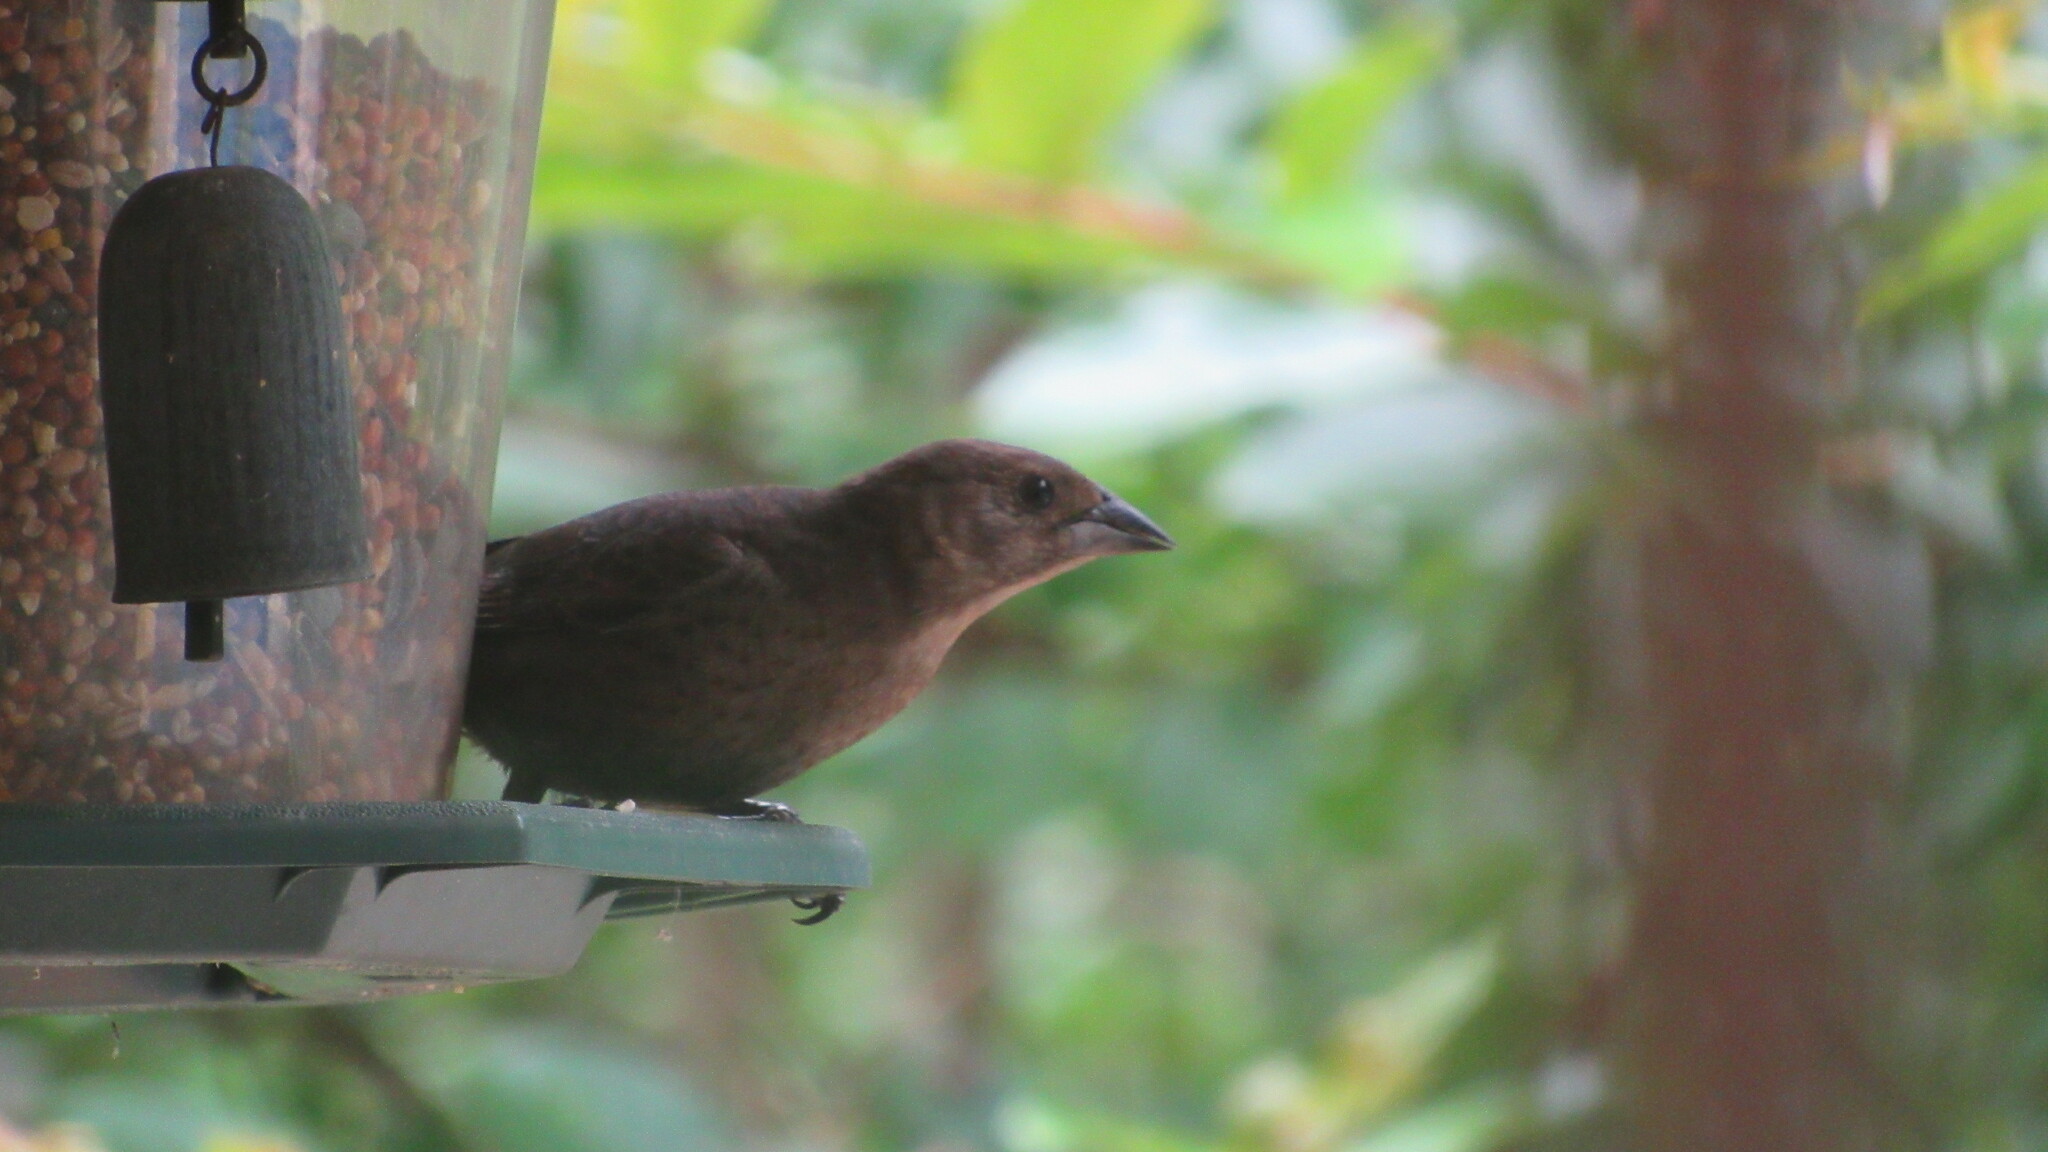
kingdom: Animalia
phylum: Chordata
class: Aves
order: Passeriformes
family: Icteridae
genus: Molothrus
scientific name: Molothrus ater
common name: Brown-headed cowbird
